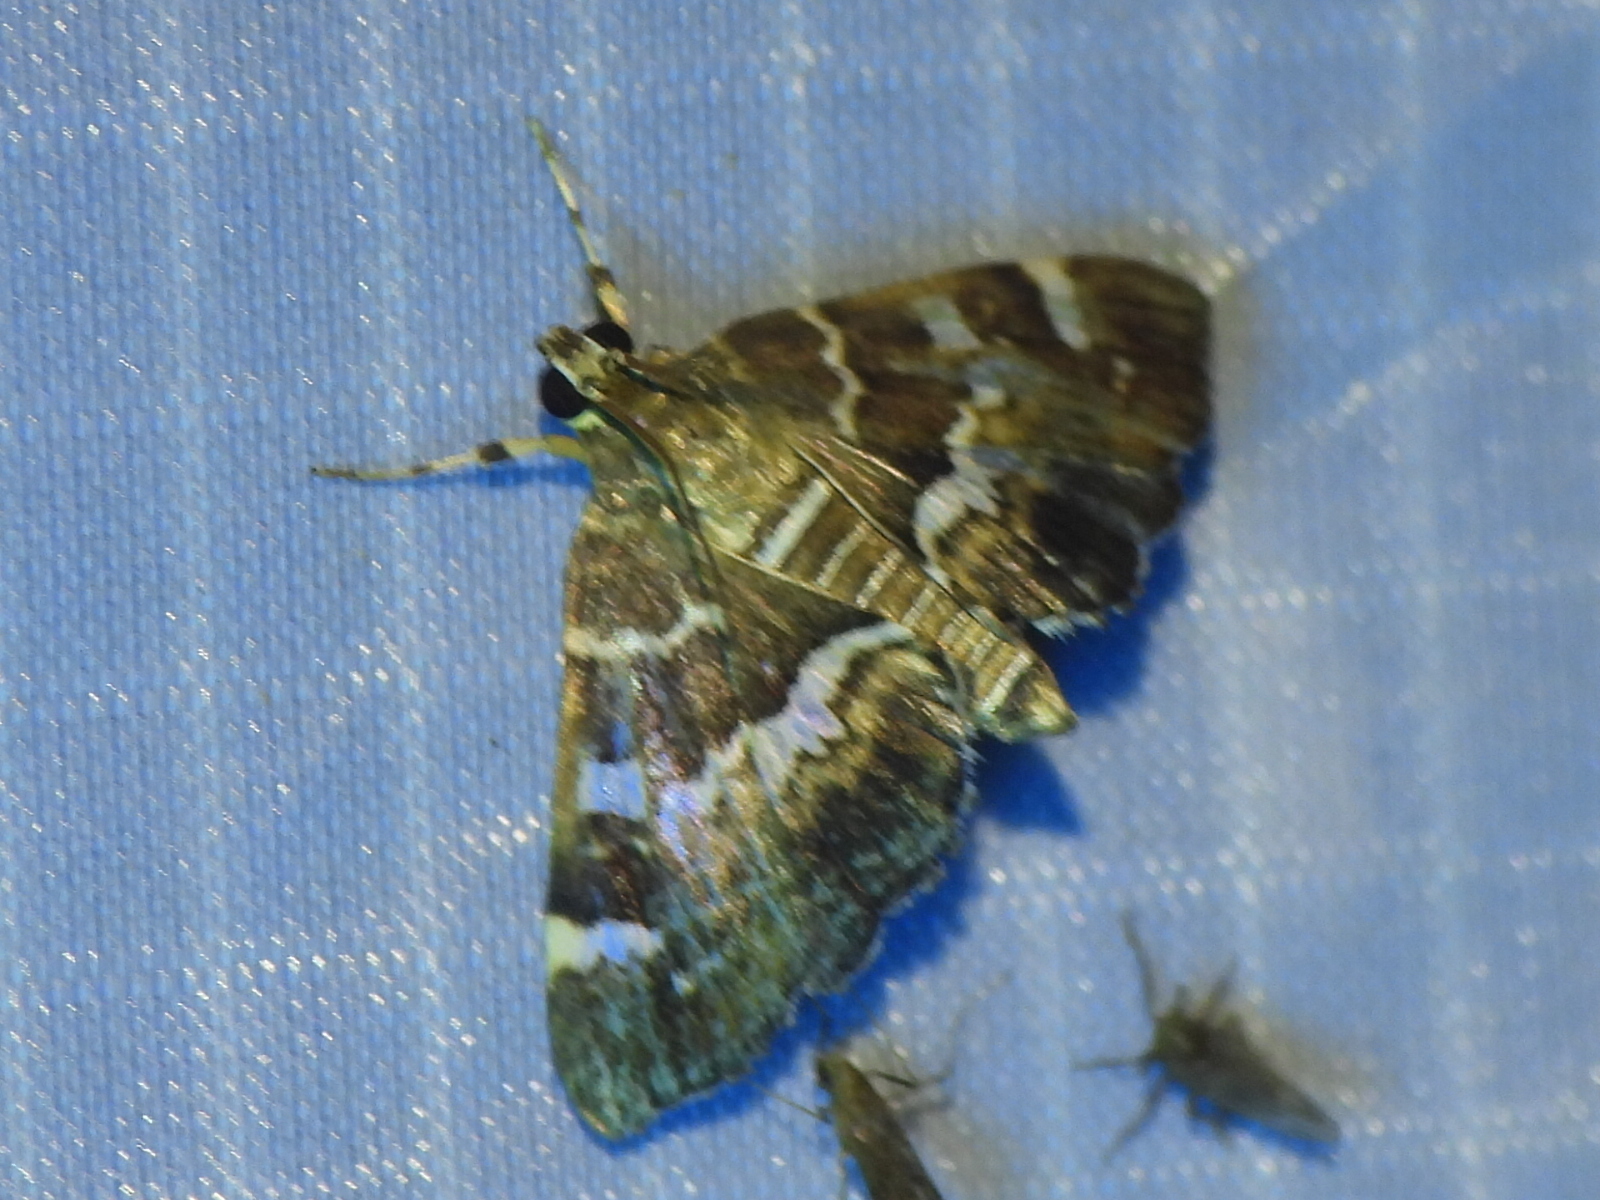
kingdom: Animalia
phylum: Arthropoda
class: Insecta
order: Lepidoptera
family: Crambidae
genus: Hymenia
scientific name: Hymenia perspectalis
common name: Spotted beet webworm
